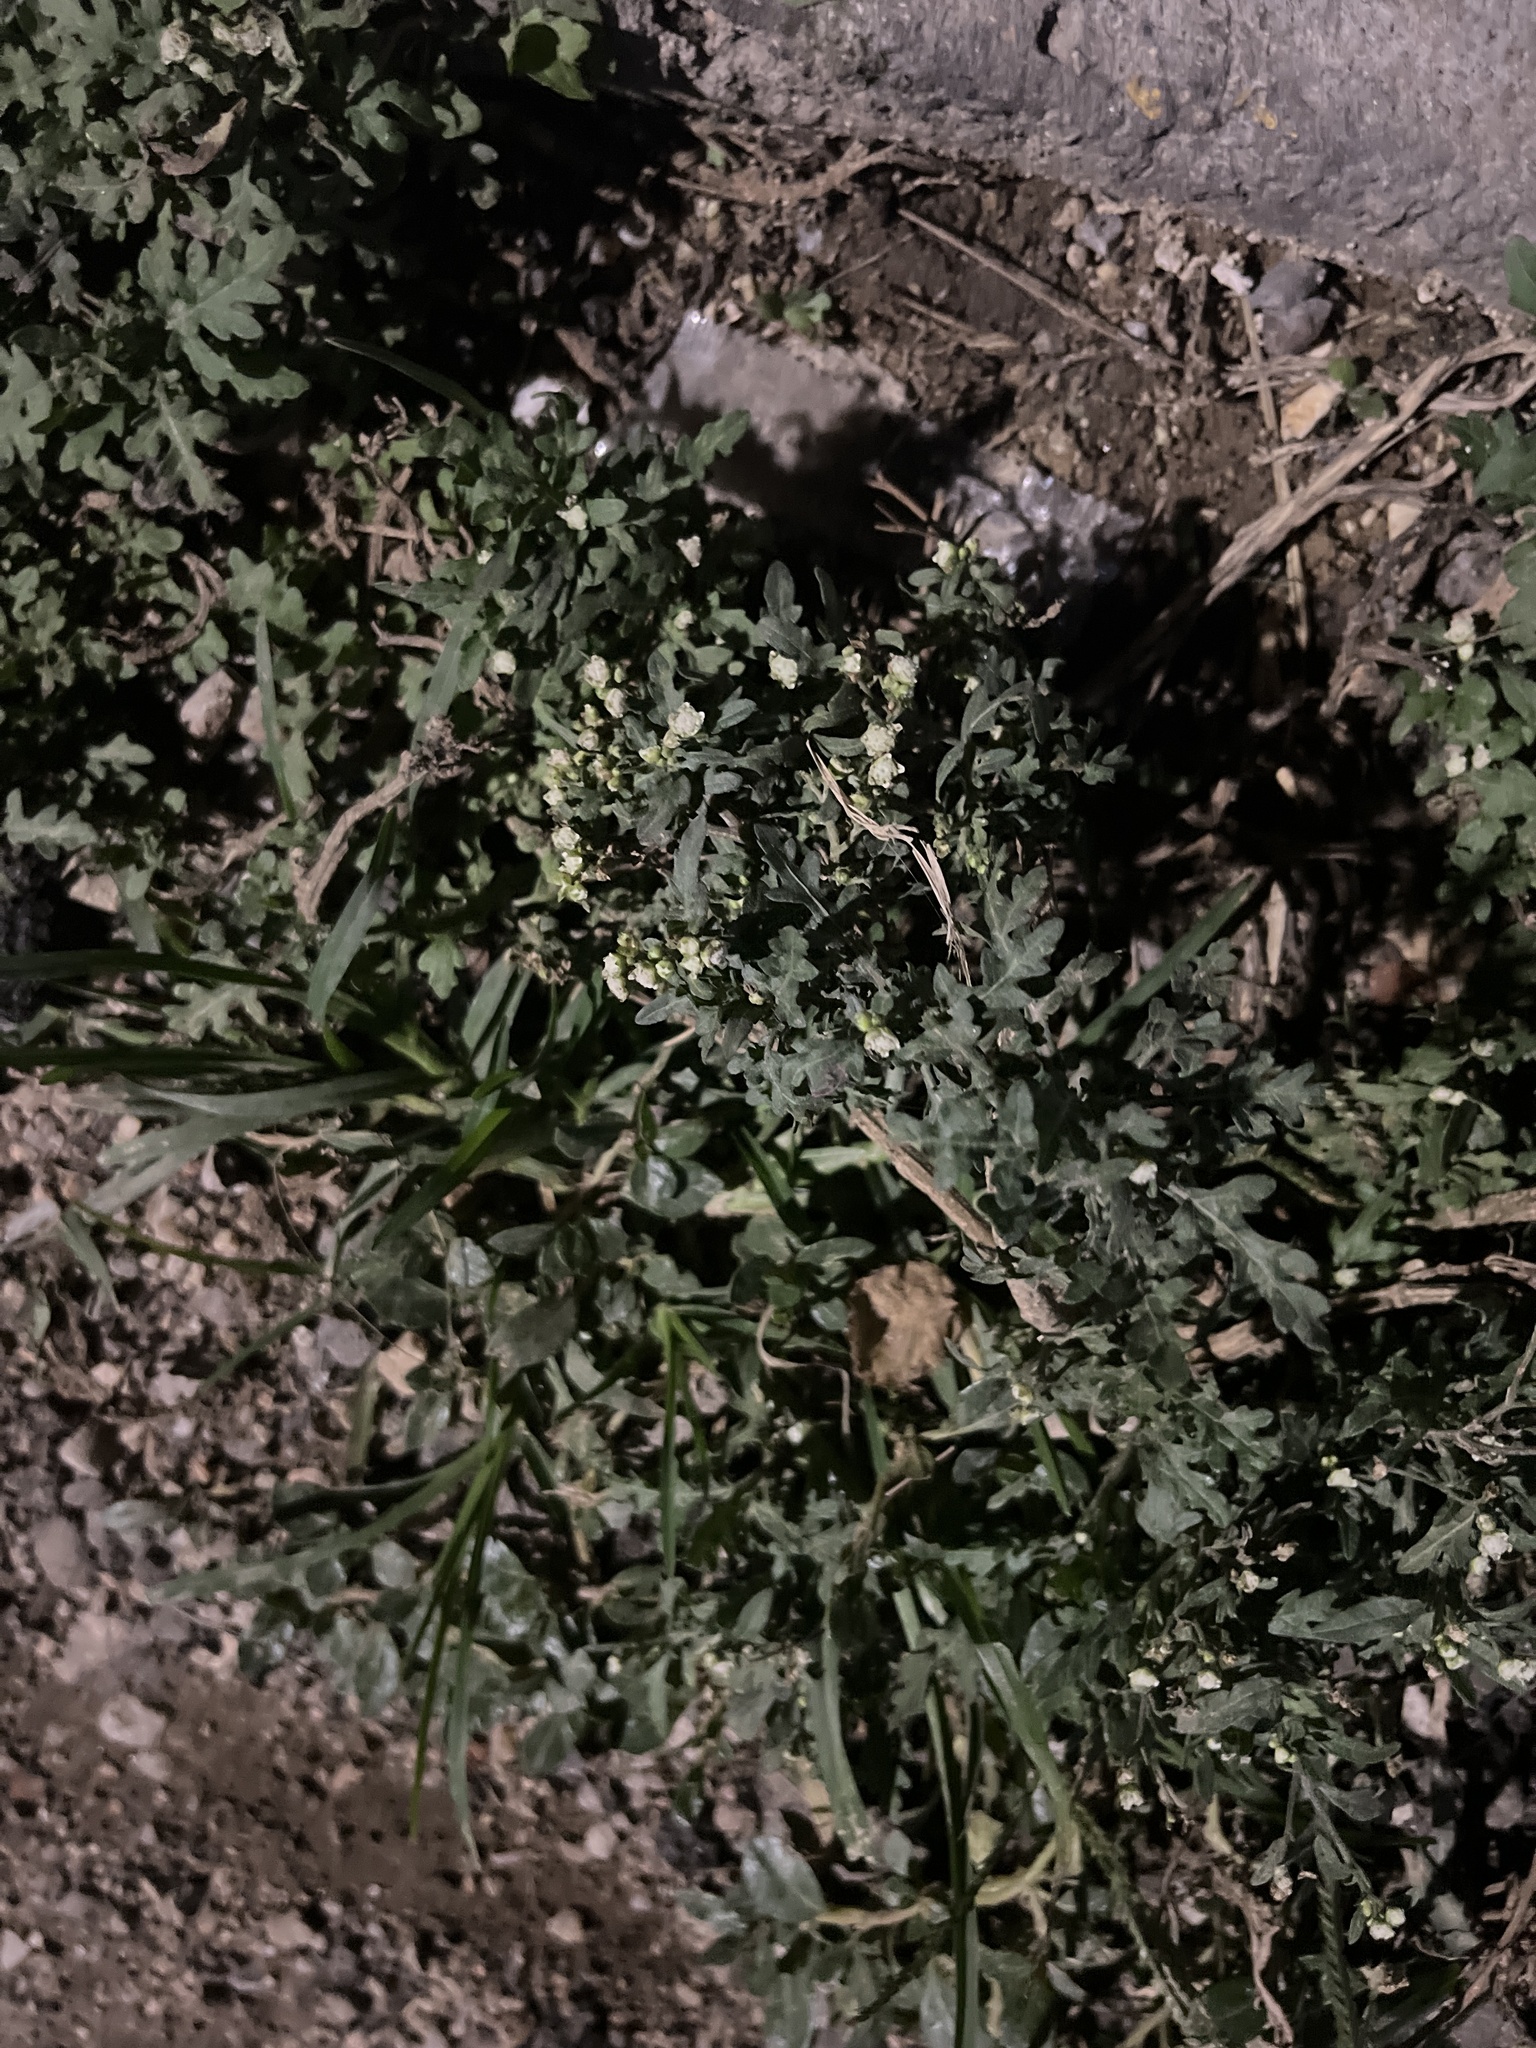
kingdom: Plantae
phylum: Tracheophyta
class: Magnoliopsida
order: Asterales
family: Asteraceae
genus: Parthenium
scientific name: Parthenium bipinnatifidum
